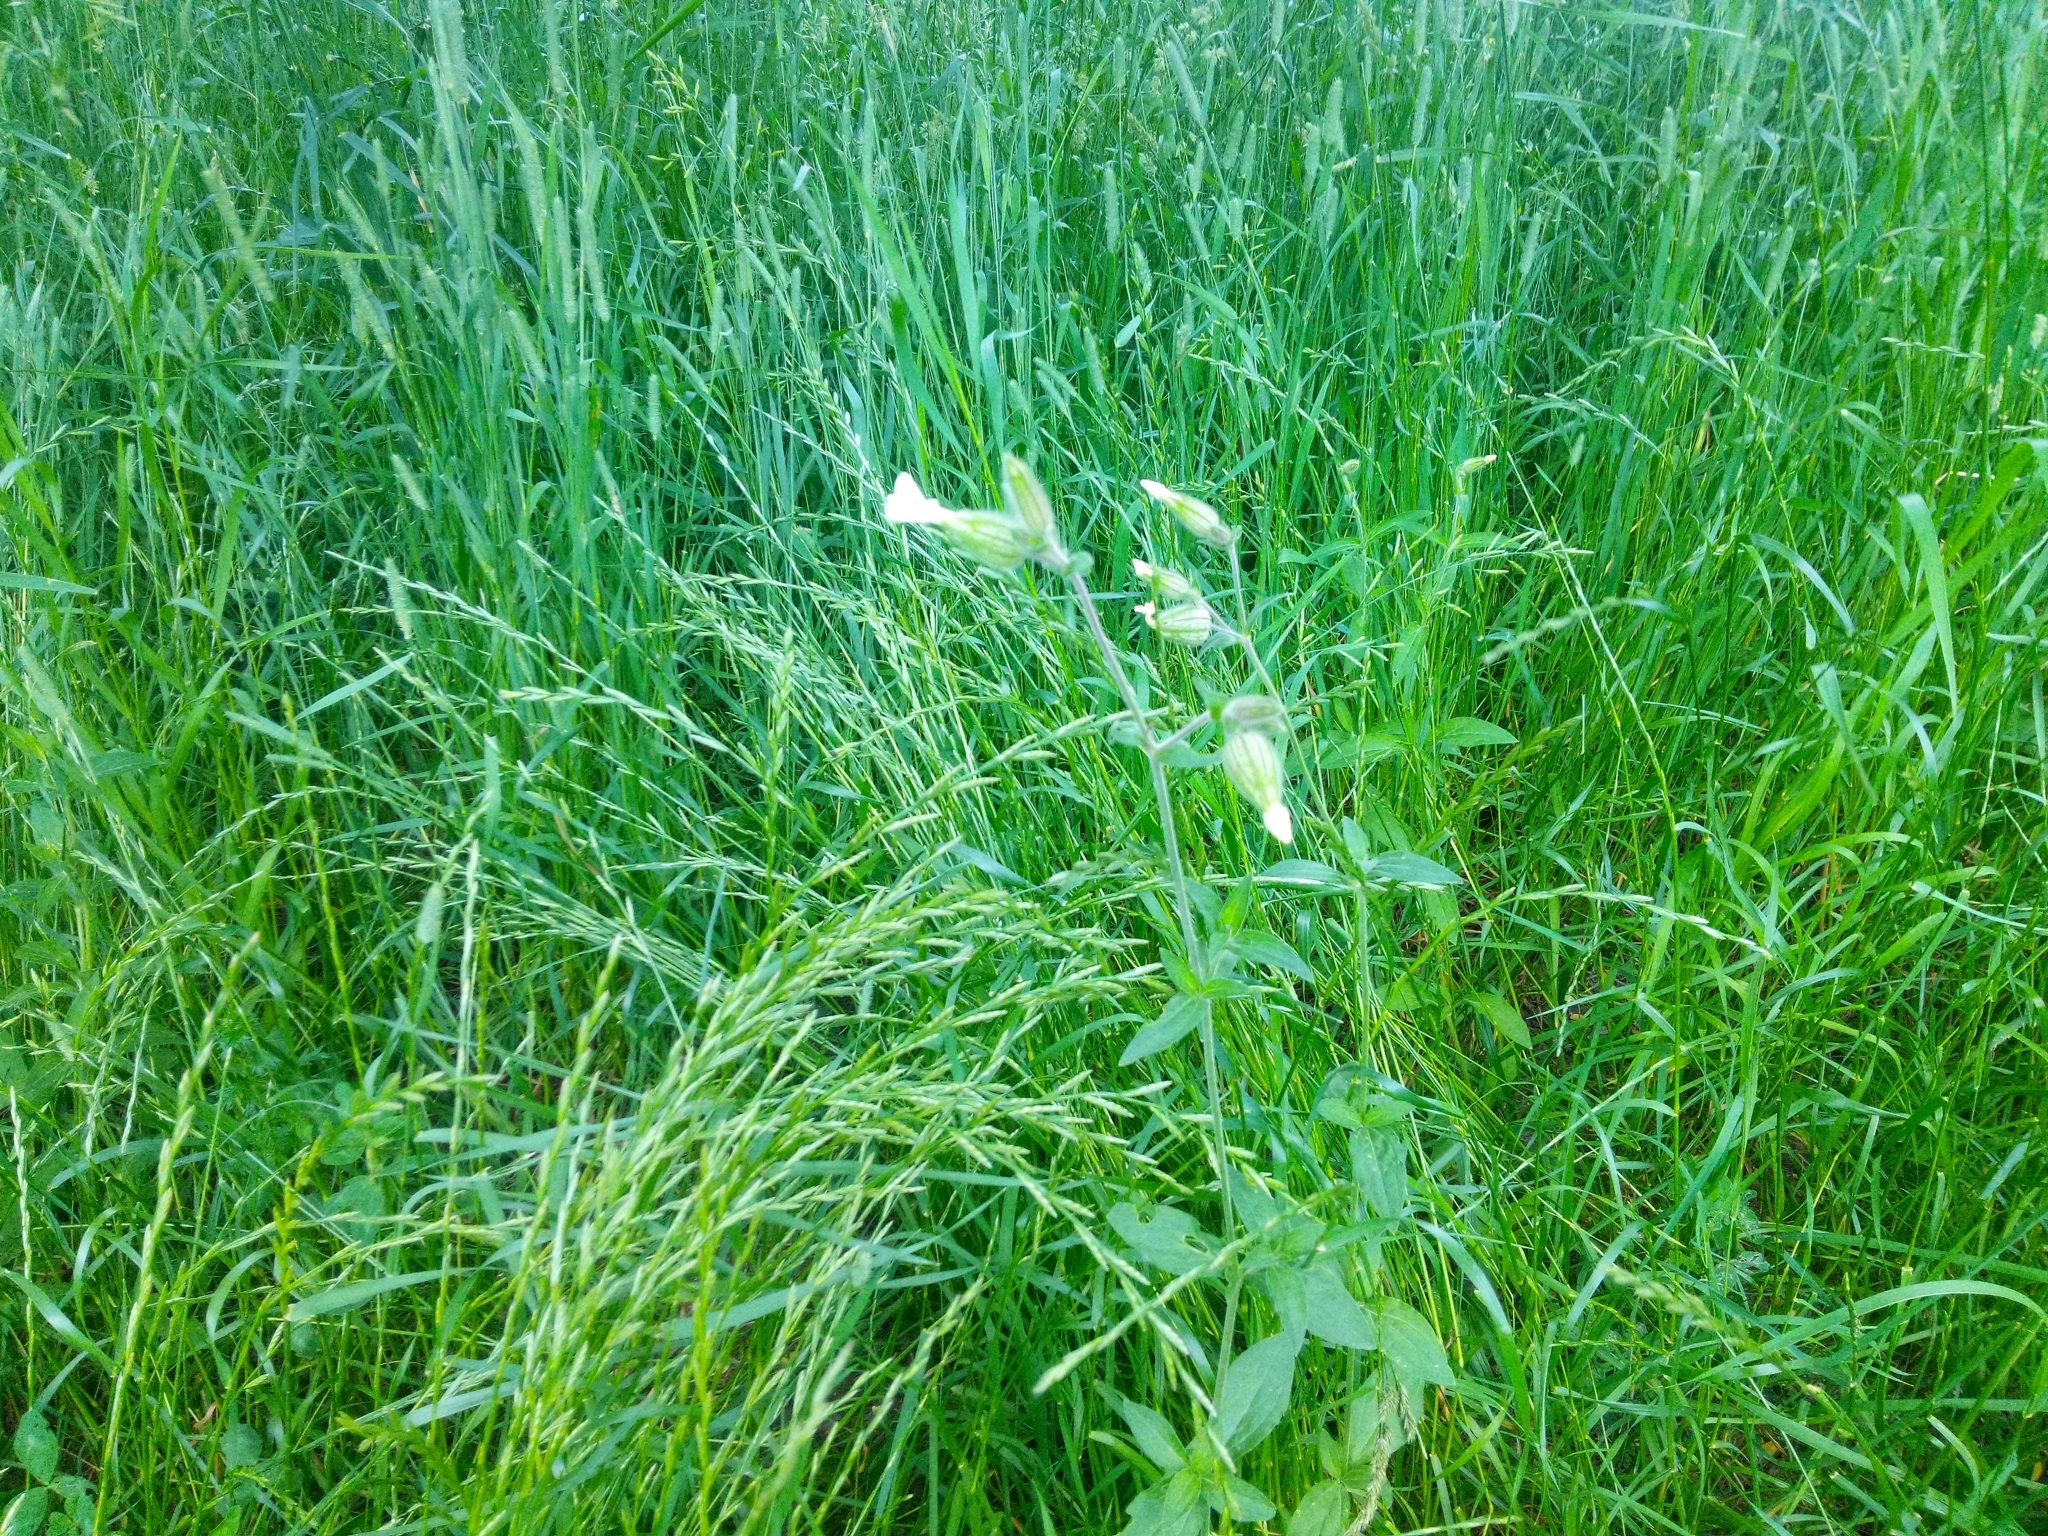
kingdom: Plantae
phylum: Tracheophyta
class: Magnoliopsida
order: Caryophyllales
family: Caryophyllaceae
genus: Silene
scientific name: Silene latifolia
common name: White campion
